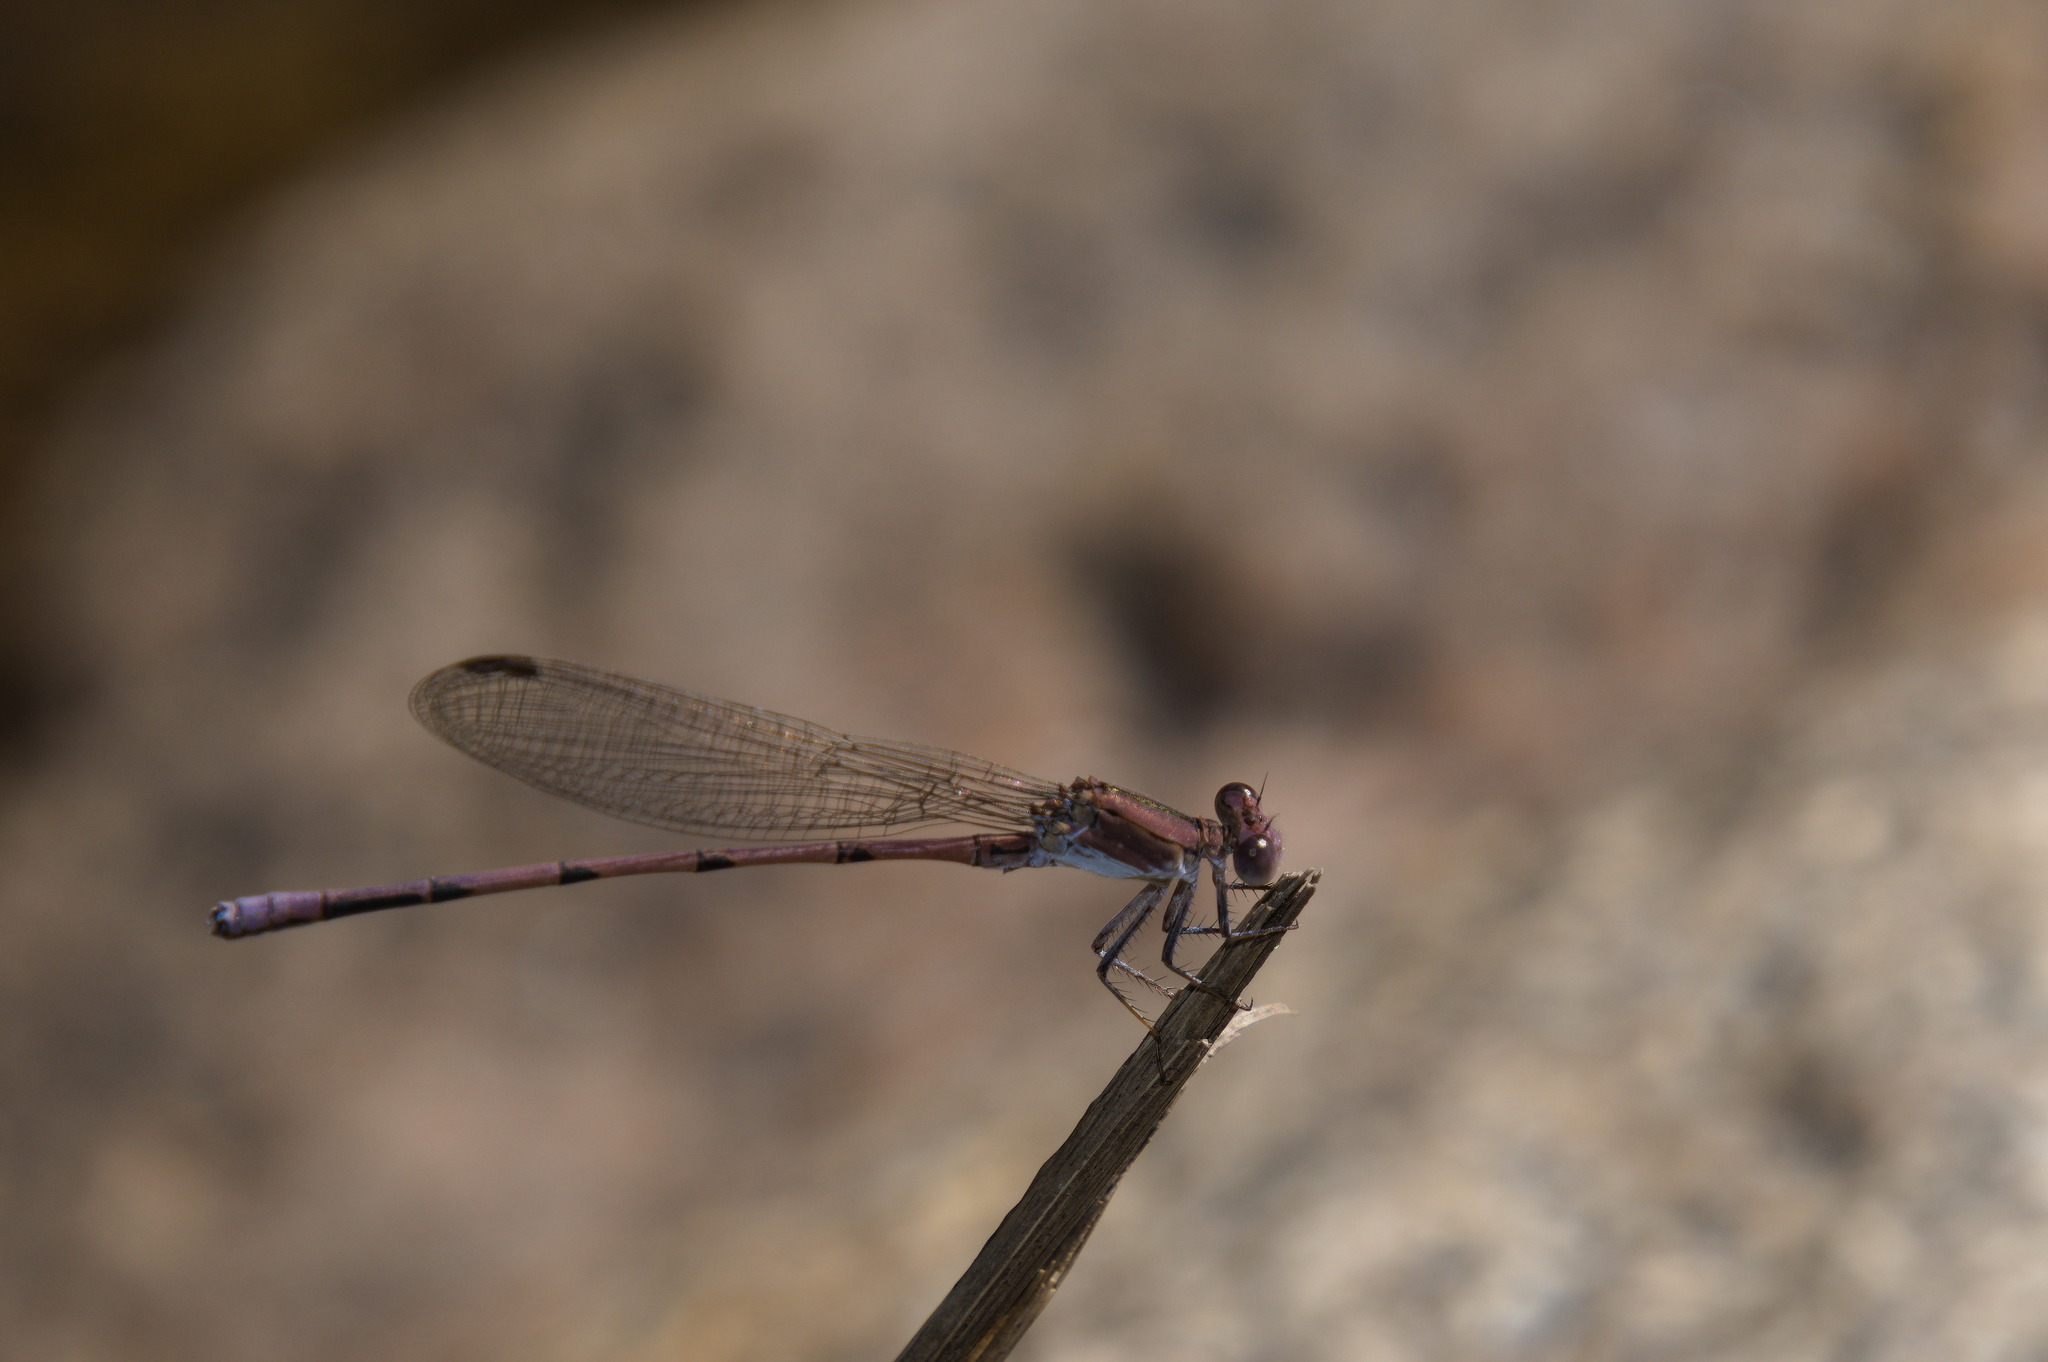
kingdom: Animalia
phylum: Arthropoda
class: Insecta
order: Odonata
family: Coenagrionidae
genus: Argia
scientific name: Argia pallens
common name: Amethyst dancer
